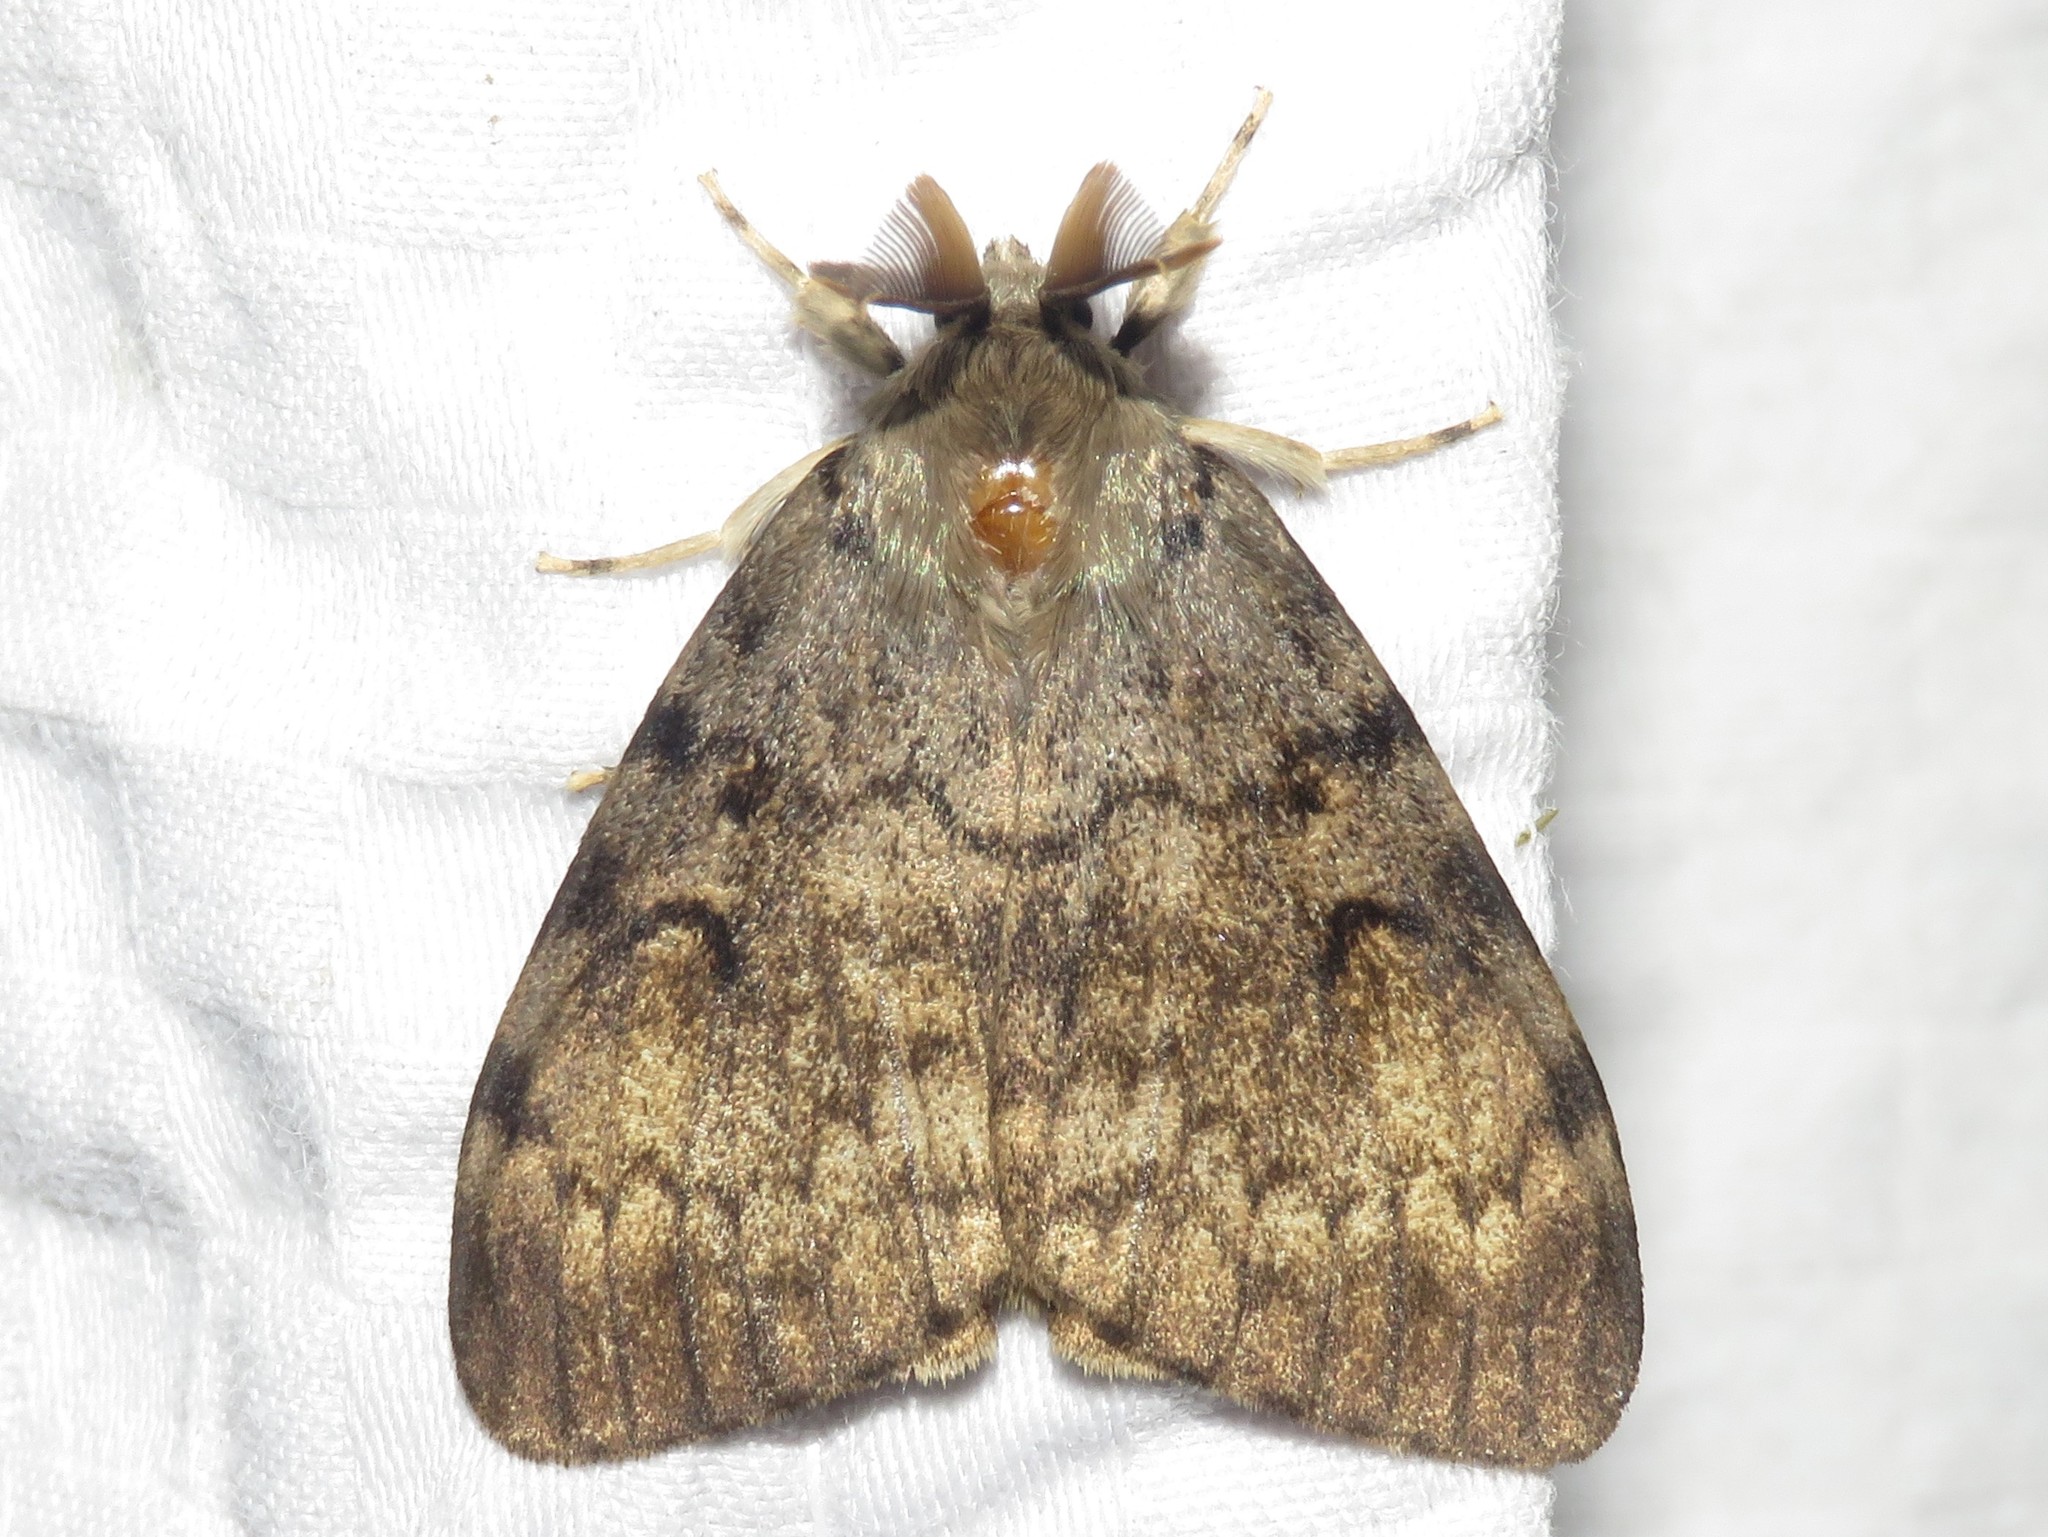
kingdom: Animalia
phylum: Arthropoda
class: Insecta
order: Lepidoptera
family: Erebidae
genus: Lymantria
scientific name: Lymantria dispar
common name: Gypsy moth
